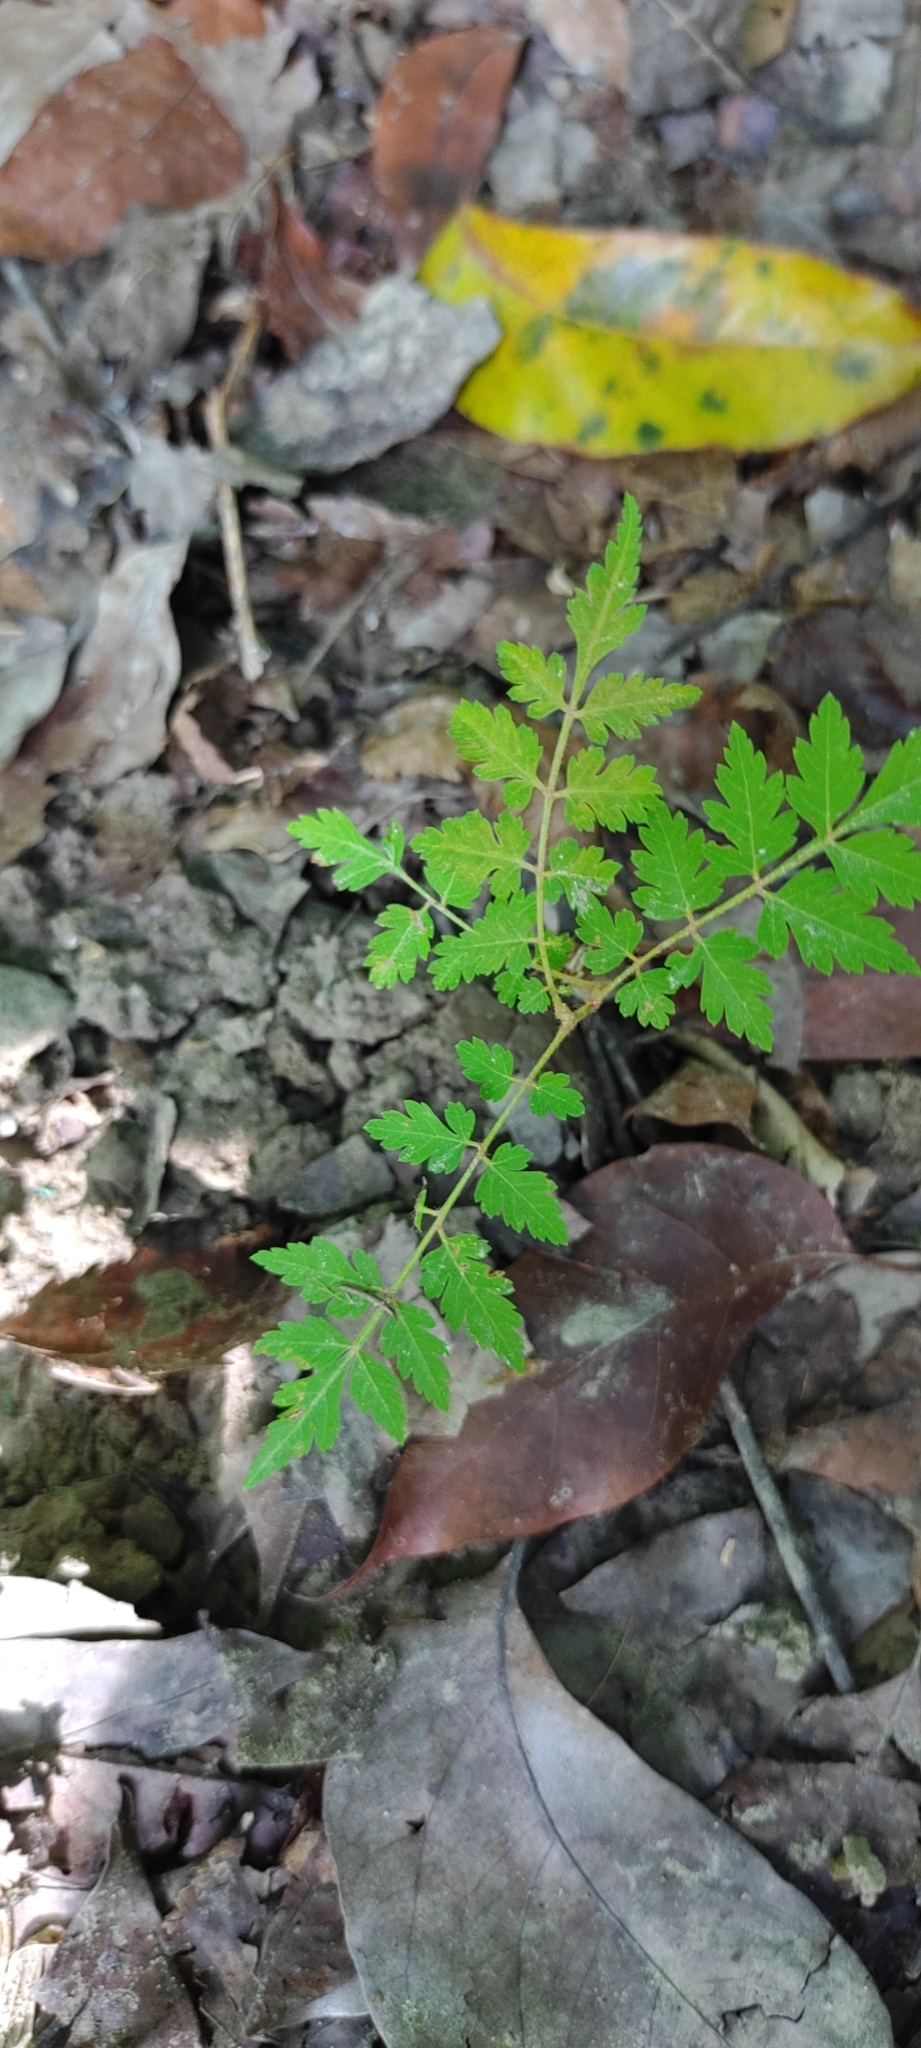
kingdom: Plantae
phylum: Tracheophyta
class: Magnoliopsida
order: Sapindales
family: Sapindaceae
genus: Koelreuteria
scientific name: Koelreuteria elegans
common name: Chinese flame tree
